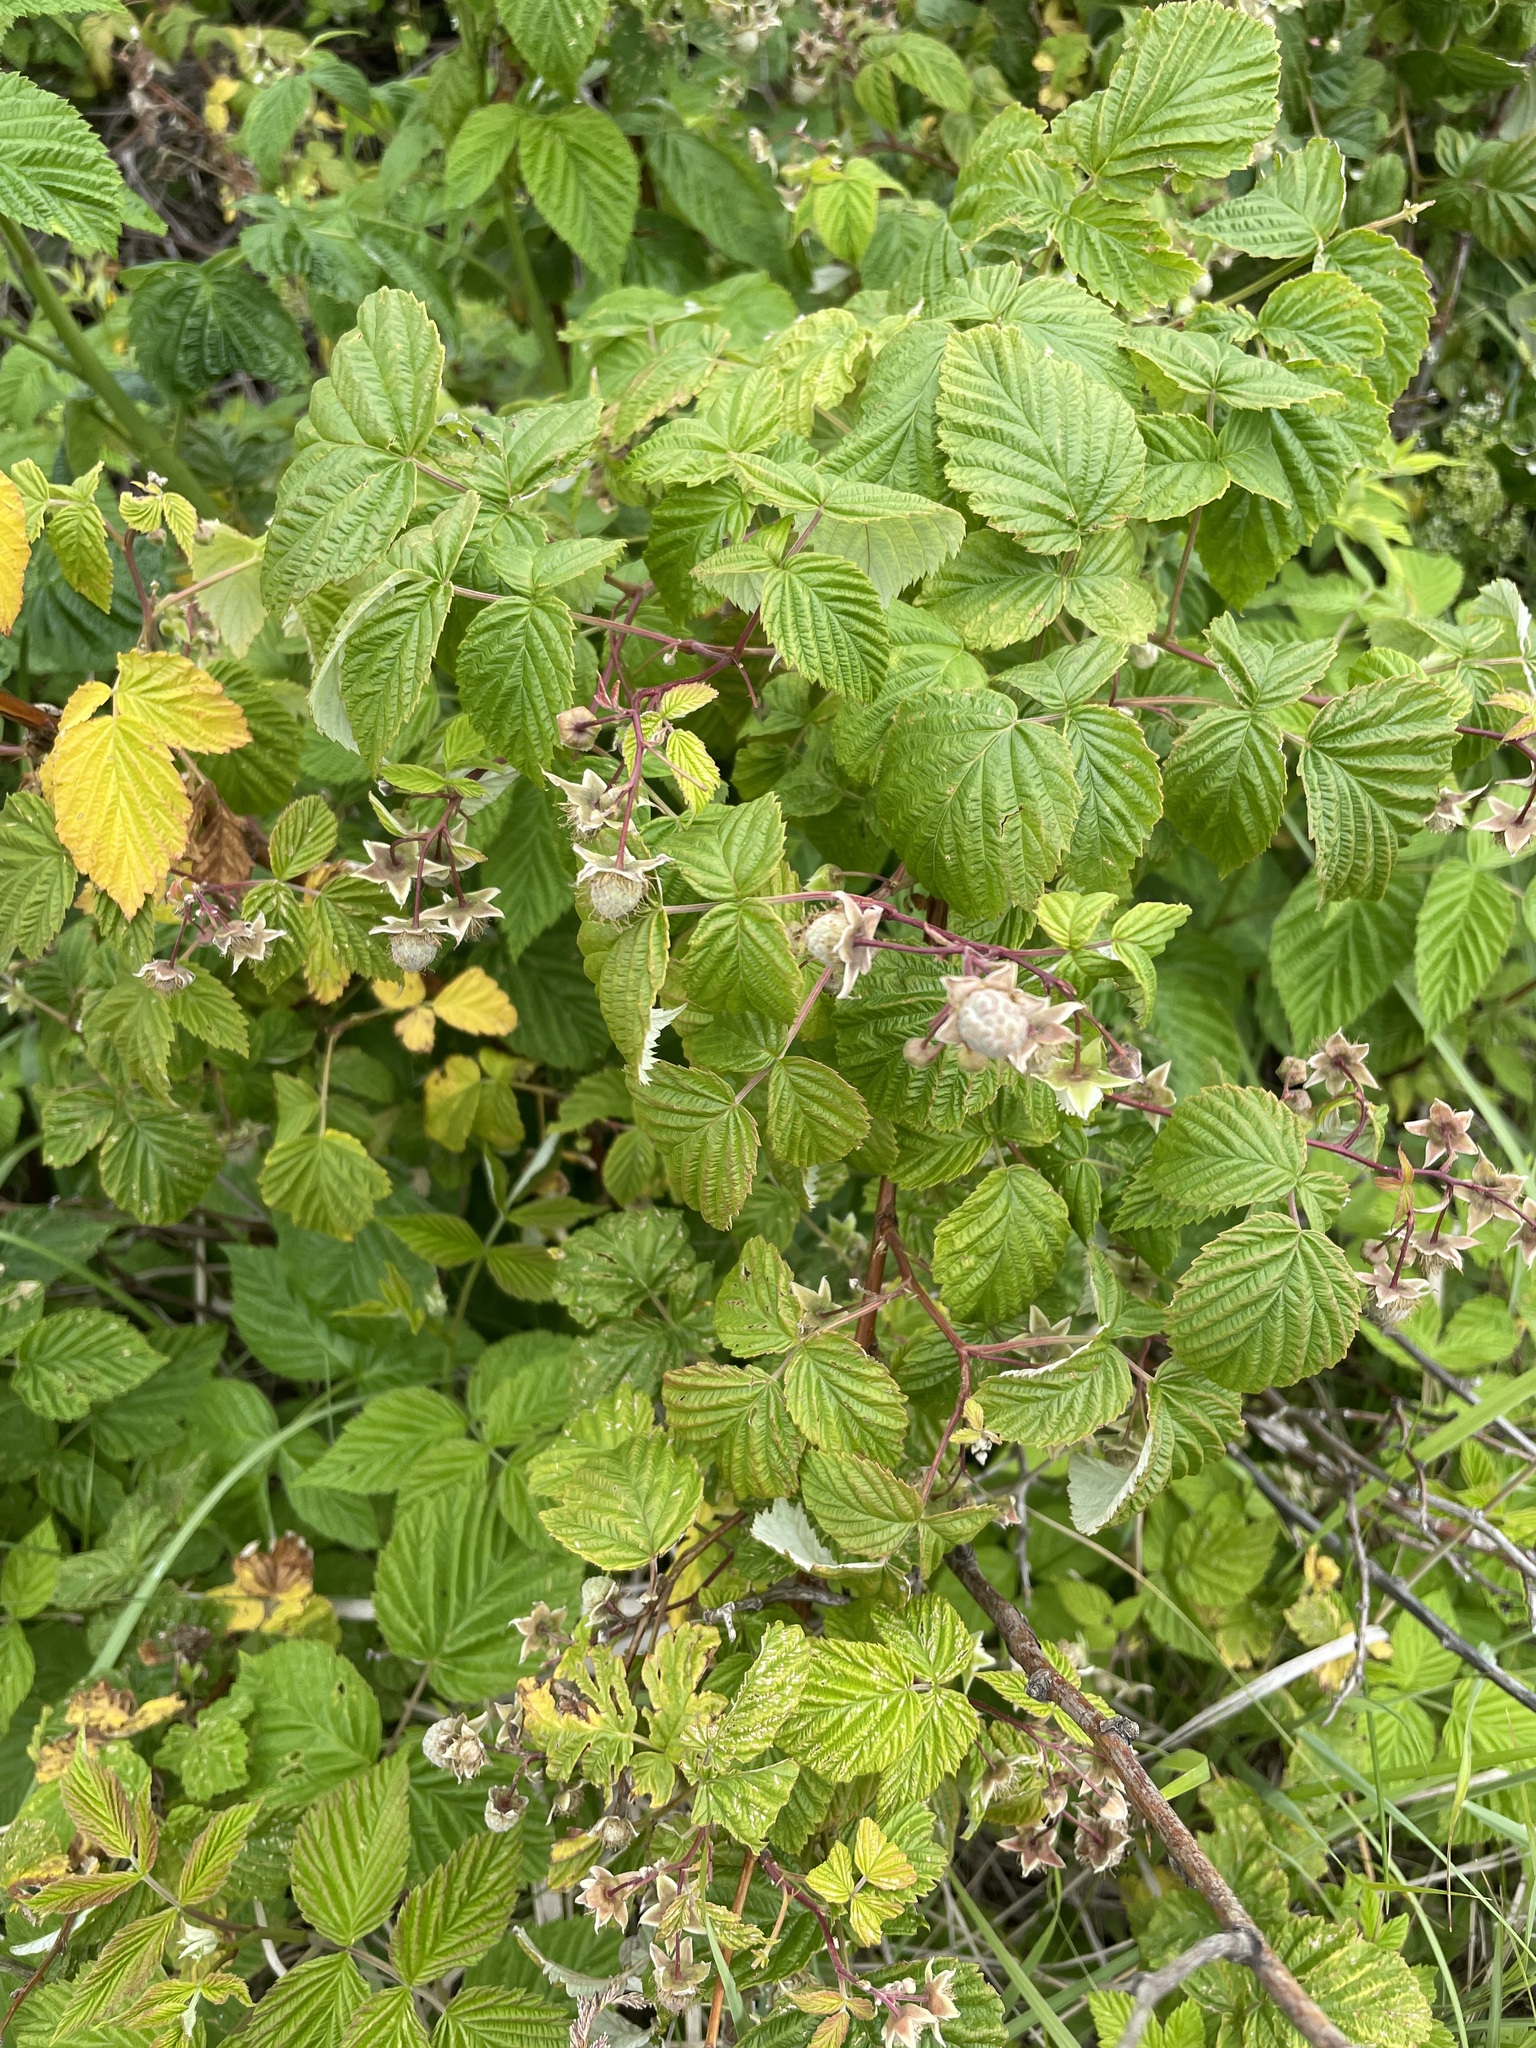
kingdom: Plantae
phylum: Tracheophyta
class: Magnoliopsida
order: Rosales
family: Rosaceae
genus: Rubus
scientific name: Rubus idaeus
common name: Raspberry
